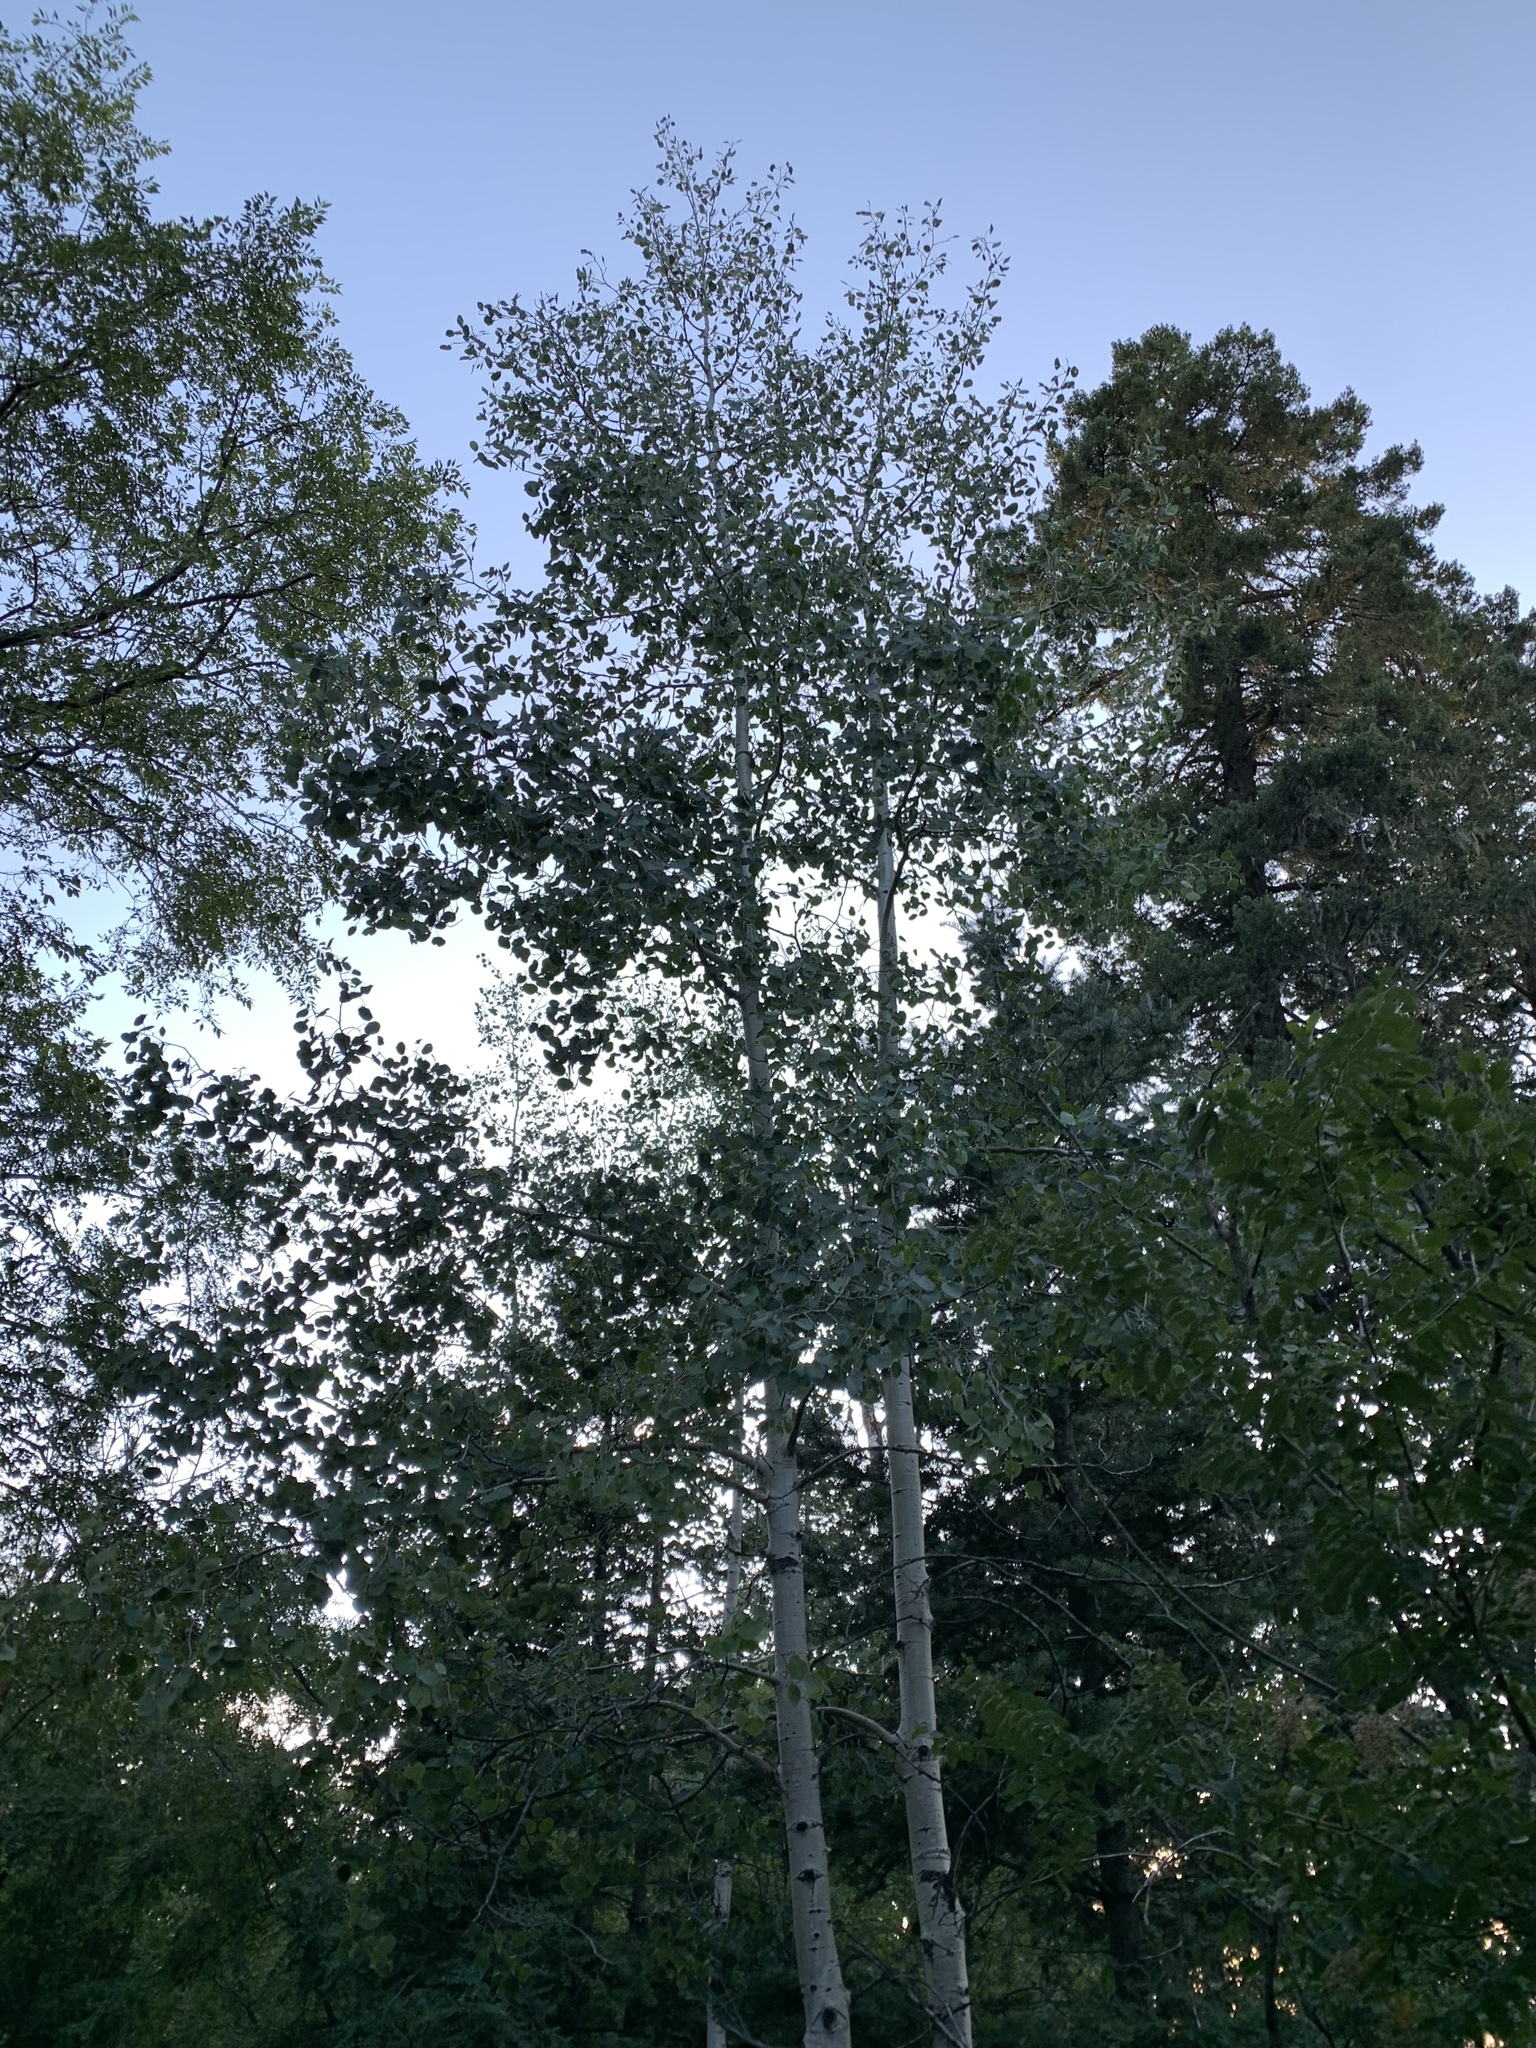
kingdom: Plantae
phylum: Tracheophyta
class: Magnoliopsida
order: Malpighiales
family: Salicaceae
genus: Populus
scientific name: Populus tremuloides
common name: Quaking aspen
